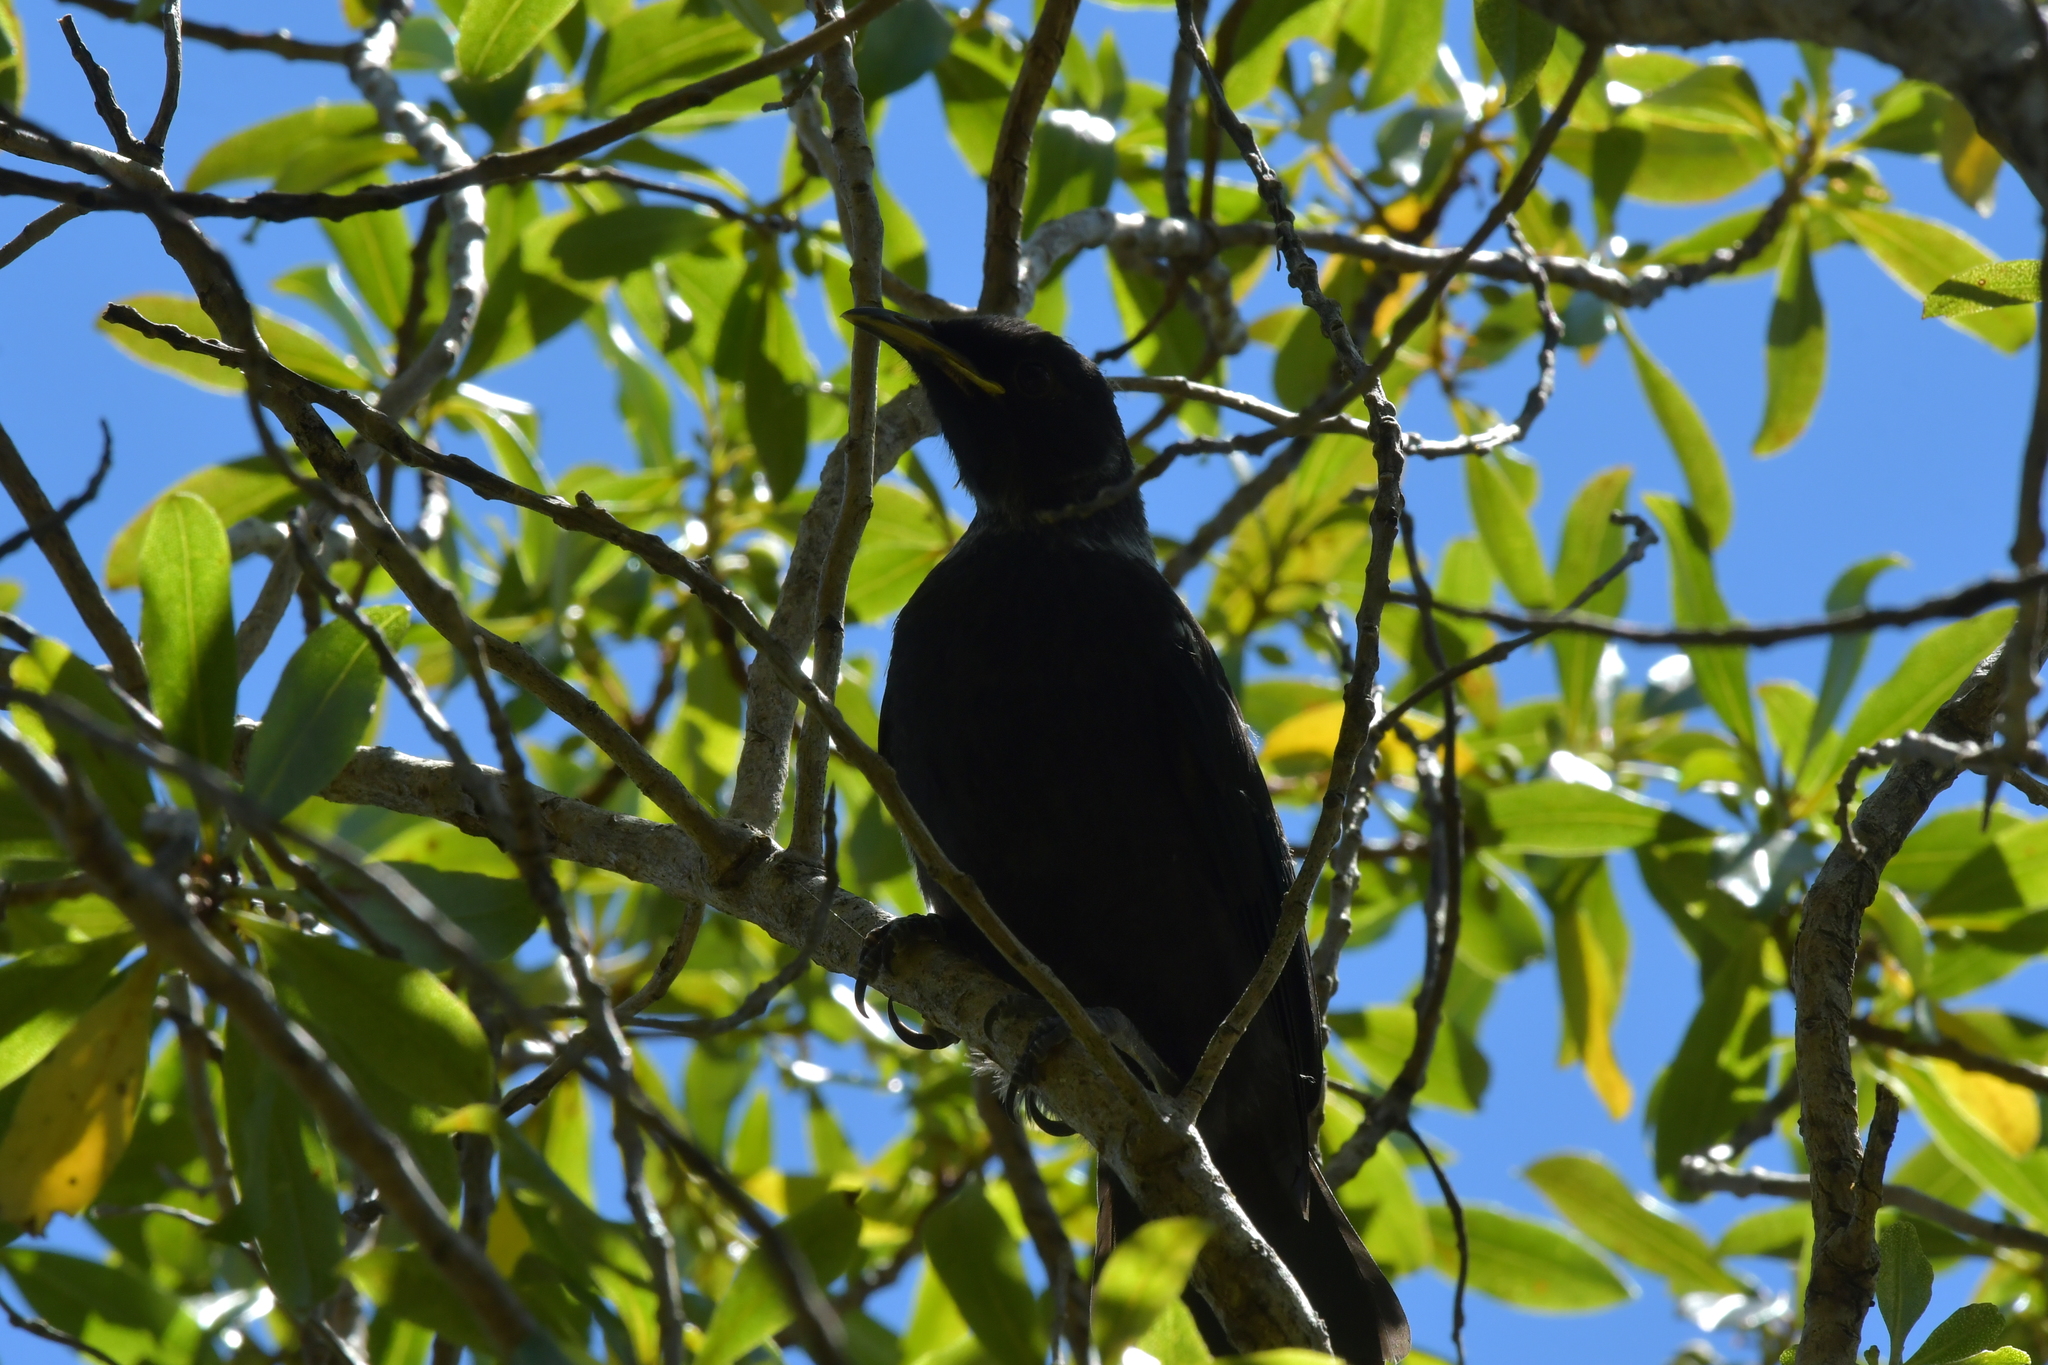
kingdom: Animalia
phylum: Chordata
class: Aves
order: Passeriformes
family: Meliphagidae
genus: Prosthemadera
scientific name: Prosthemadera novaeseelandiae
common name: Tui
